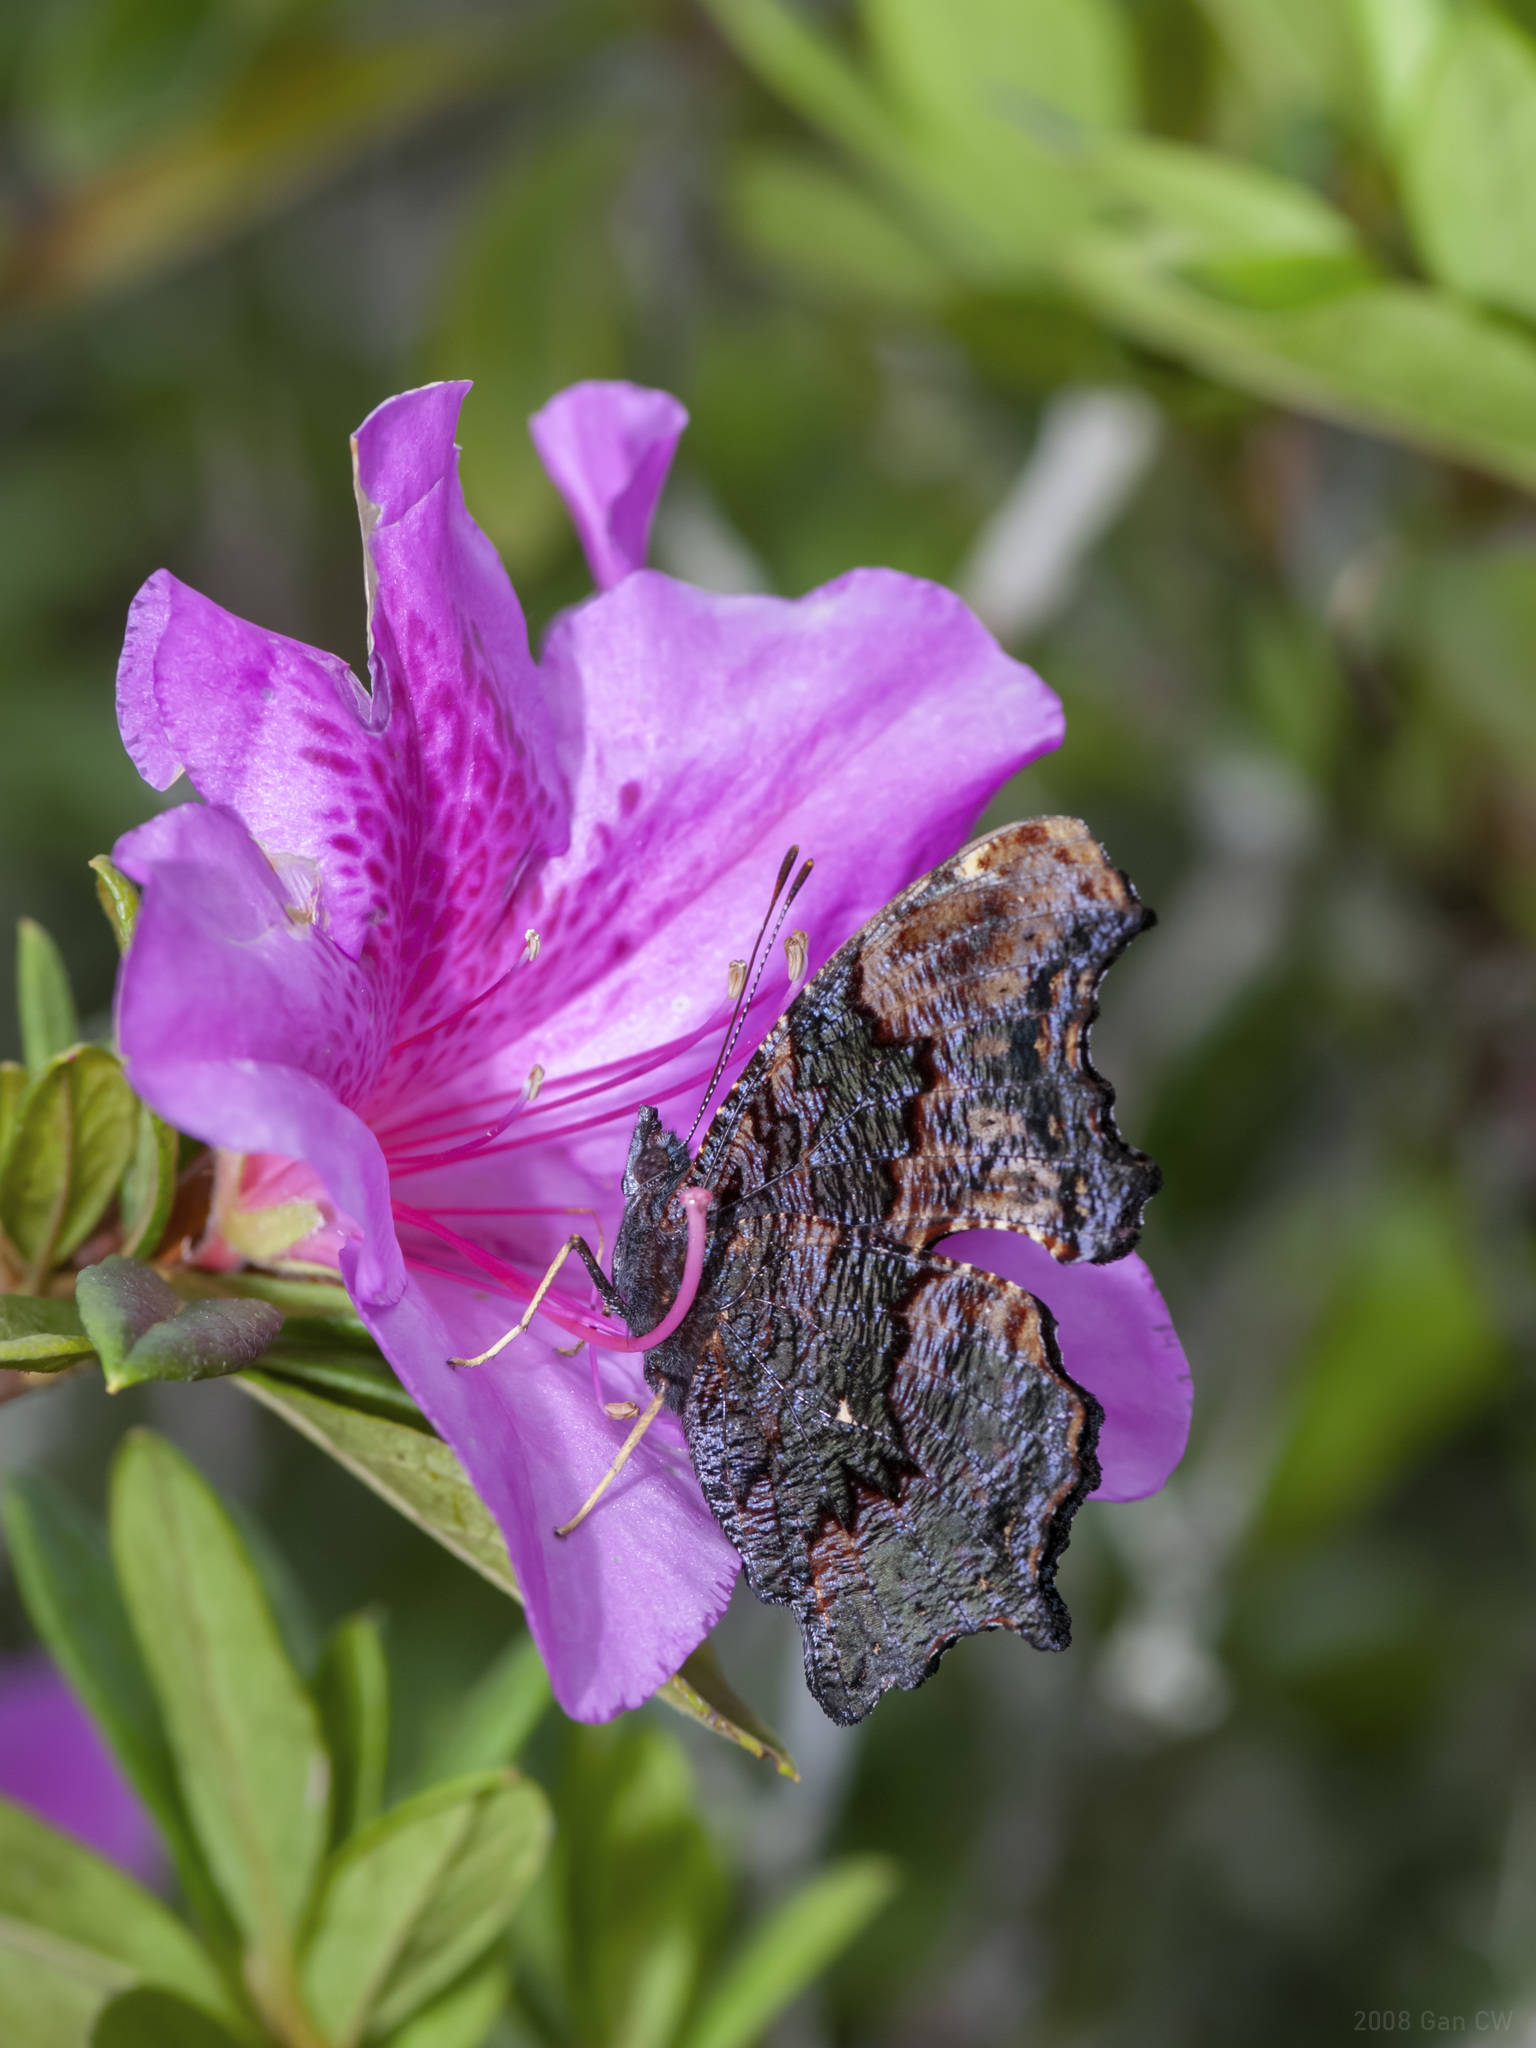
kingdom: Animalia
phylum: Arthropoda
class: Insecta
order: Lepidoptera
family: Nymphalidae
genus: Vanessa
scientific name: Vanessa Kaniska canace
